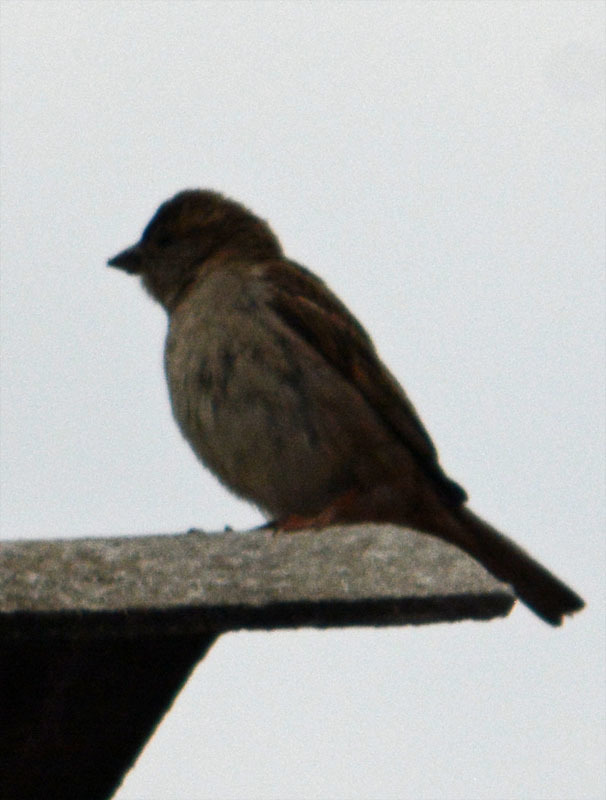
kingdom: Animalia
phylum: Chordata
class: Aves
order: Passeriformes
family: Passeridae
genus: Passer
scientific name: Passer domesticus
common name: House sparrow
